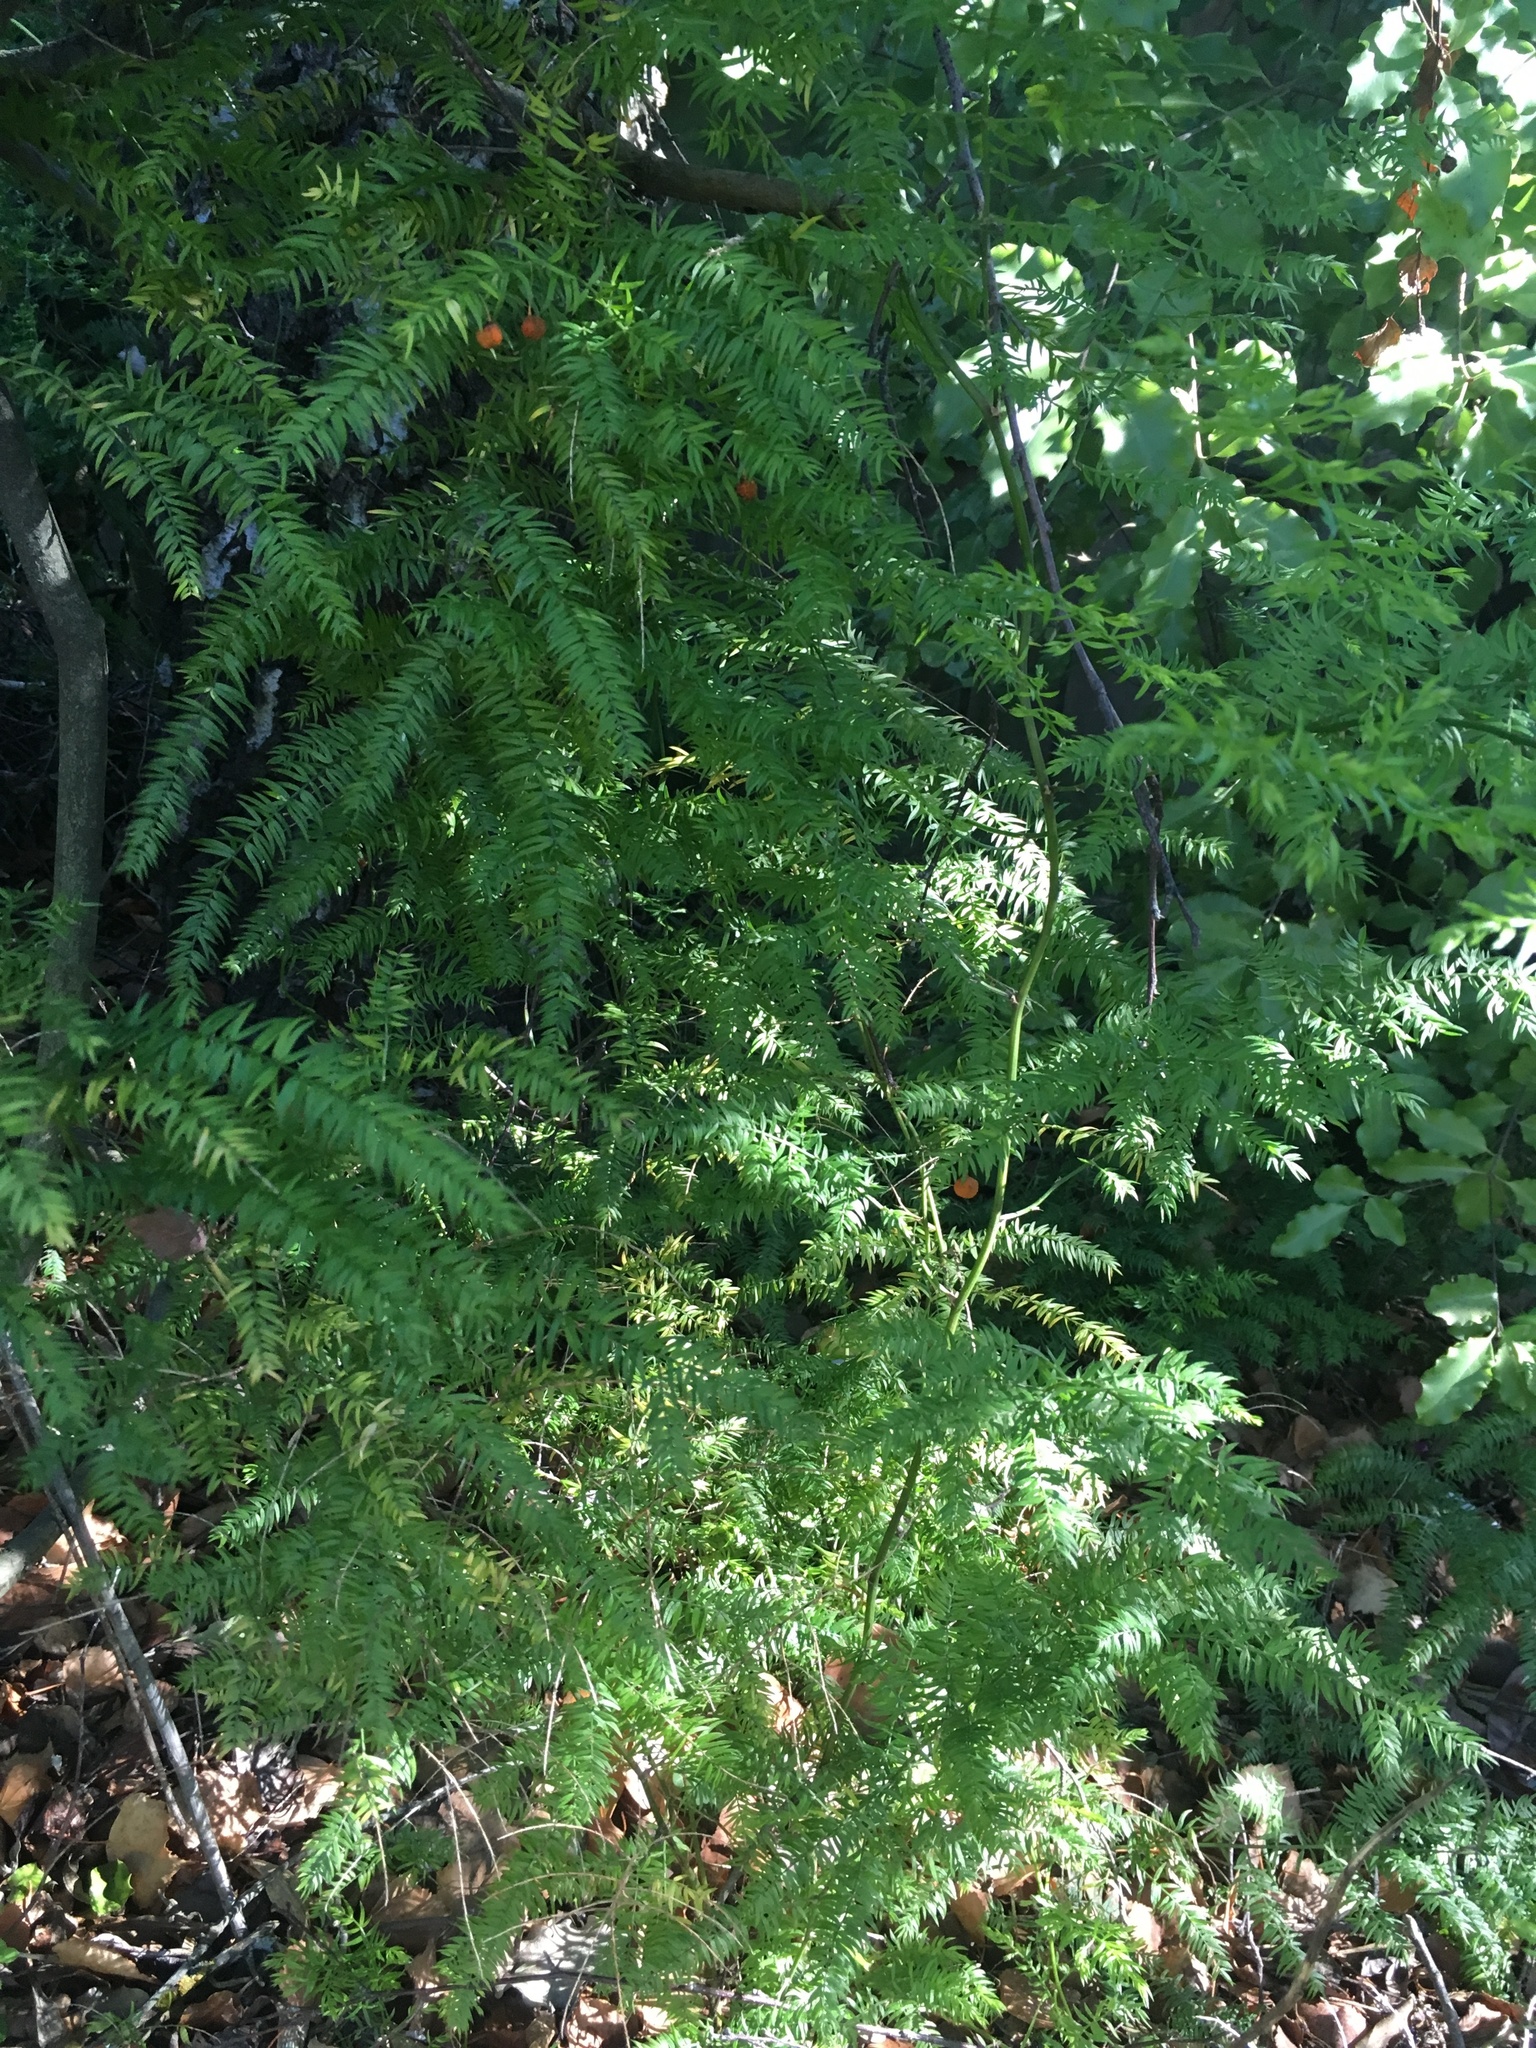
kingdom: Plantae
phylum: Tracheophyta
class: Liliopsida
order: Asparagales
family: Asparagaceae
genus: Asparagus
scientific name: Asparagus scandens
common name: Asparagus-fern
